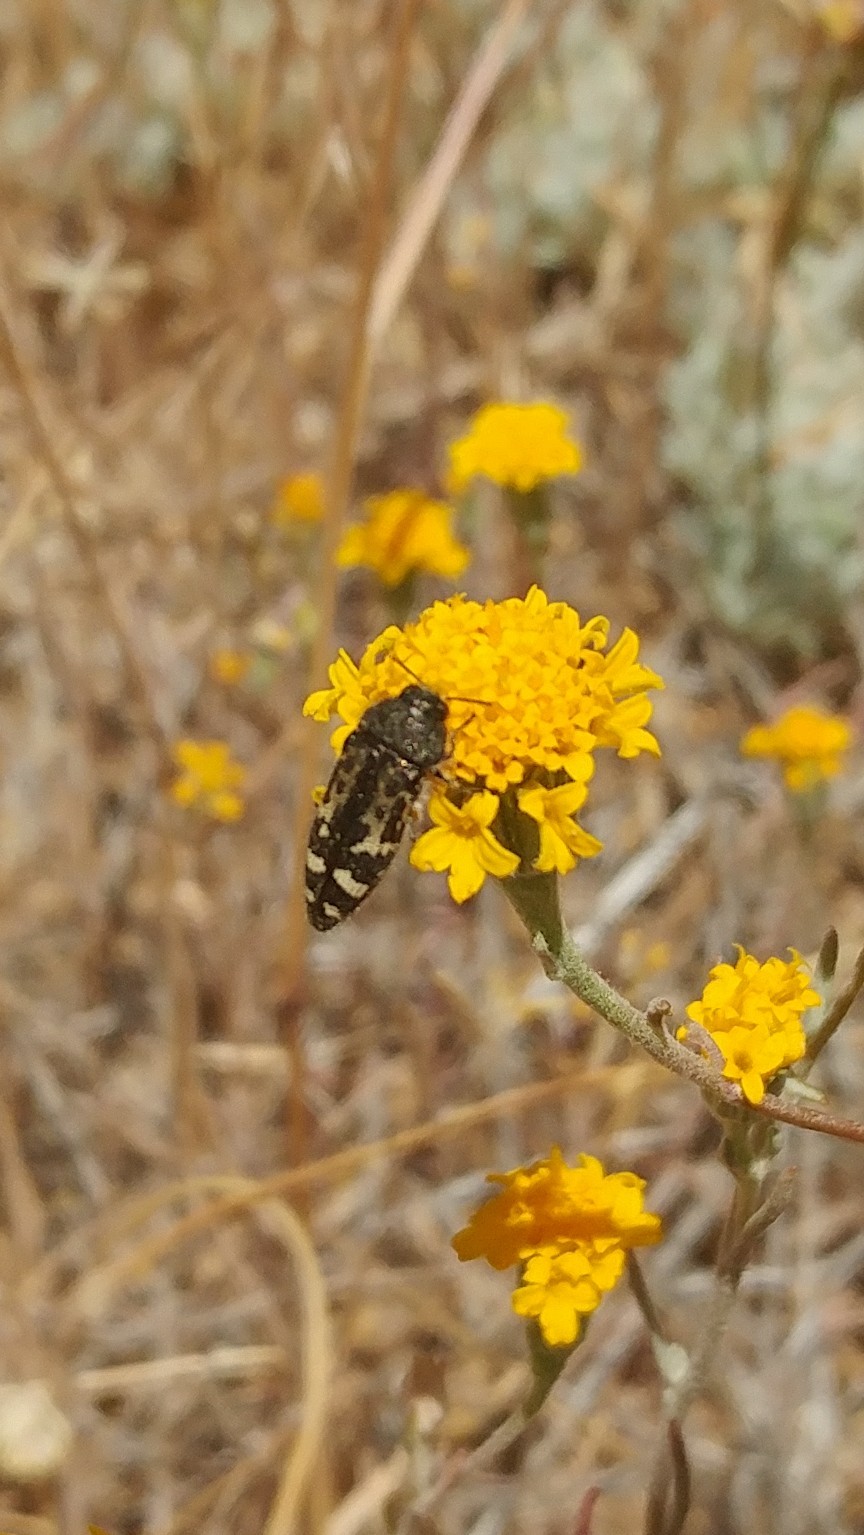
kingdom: Animalia
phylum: Arthropoda
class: Insecta
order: Coleoptera
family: Buprestidae
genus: Acmaeodera
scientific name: Acmaeodera connexa
